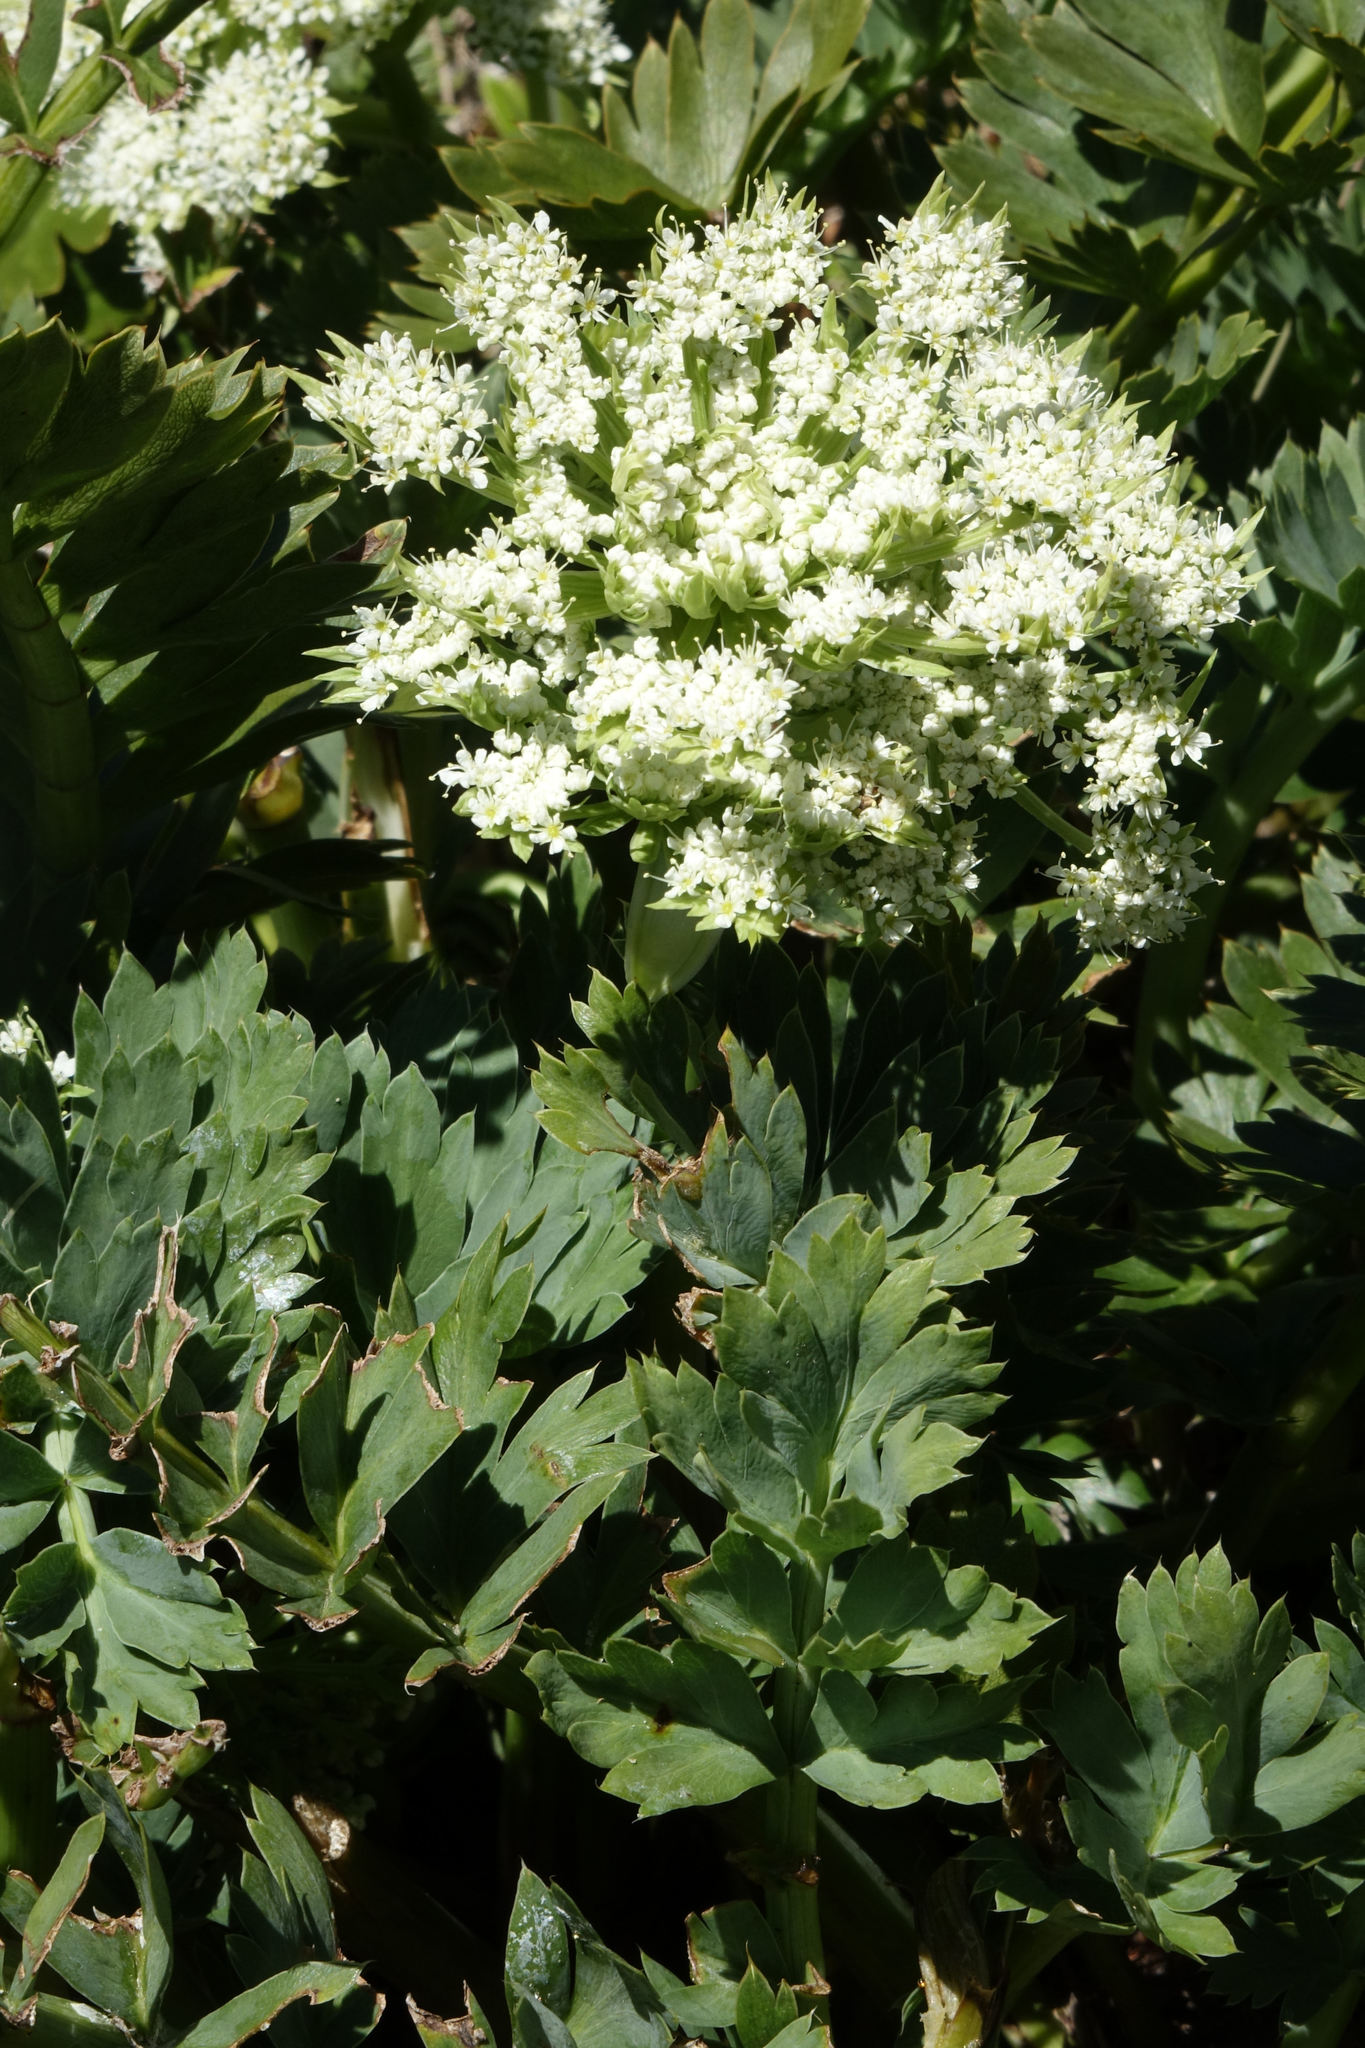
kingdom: Plantae
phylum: Tracheophyta
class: Magnoliopsida
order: Apiales
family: Apiaceae
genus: Anisotome
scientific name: Anisotome pilifera
